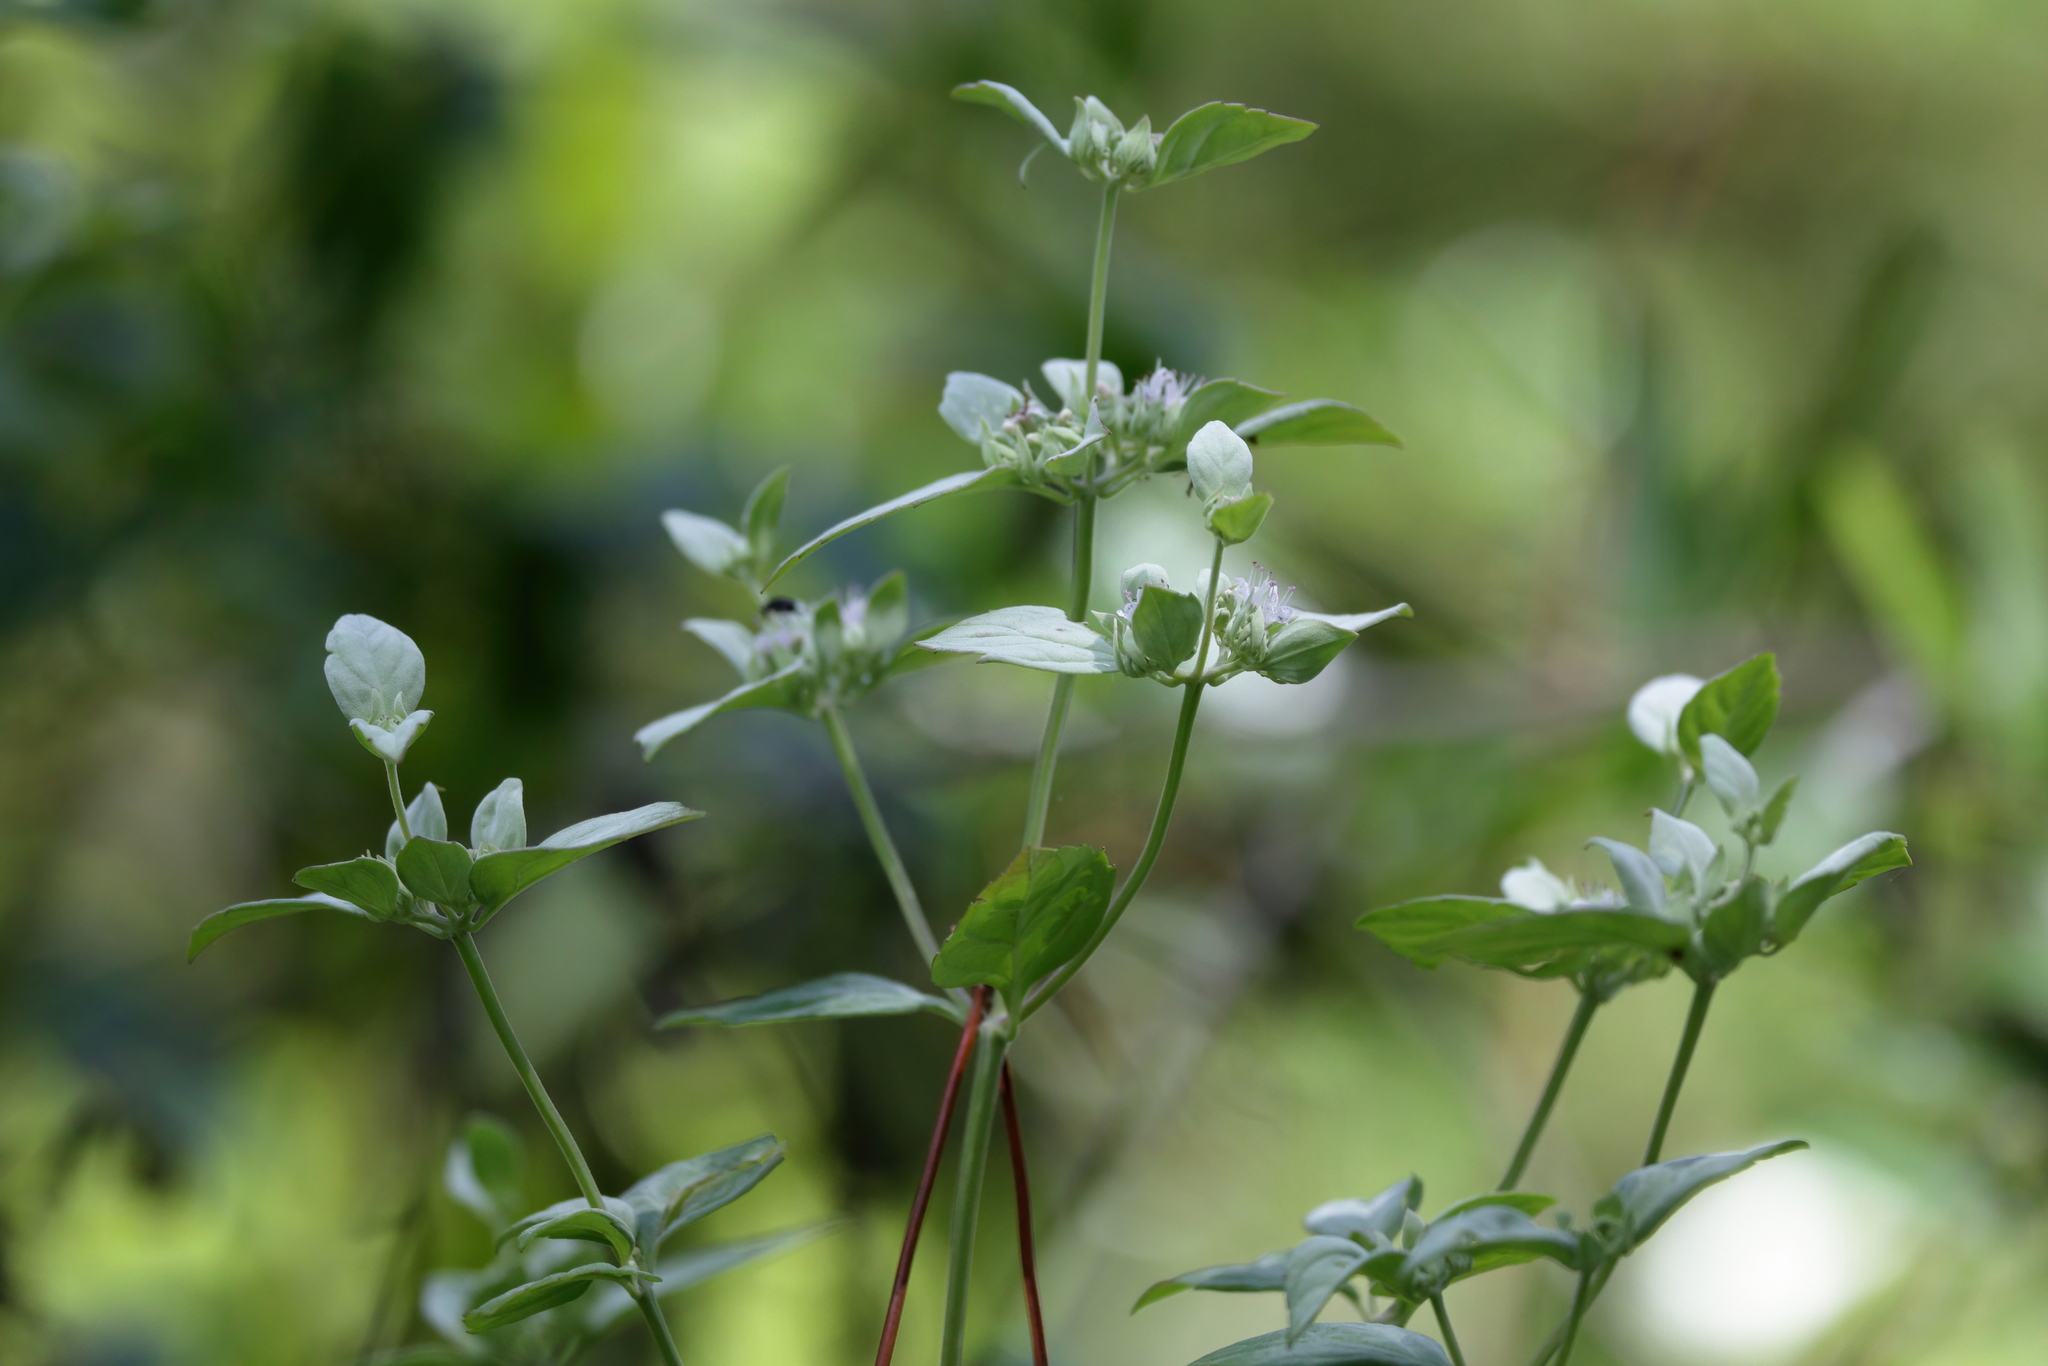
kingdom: Plantae
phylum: Tracheophyta
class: Magnoliopsida
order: Lamiales
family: Lamiaceae
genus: Pycnanthemum
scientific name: Pycnanthemum albescens
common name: White-leaf mountain-mint
